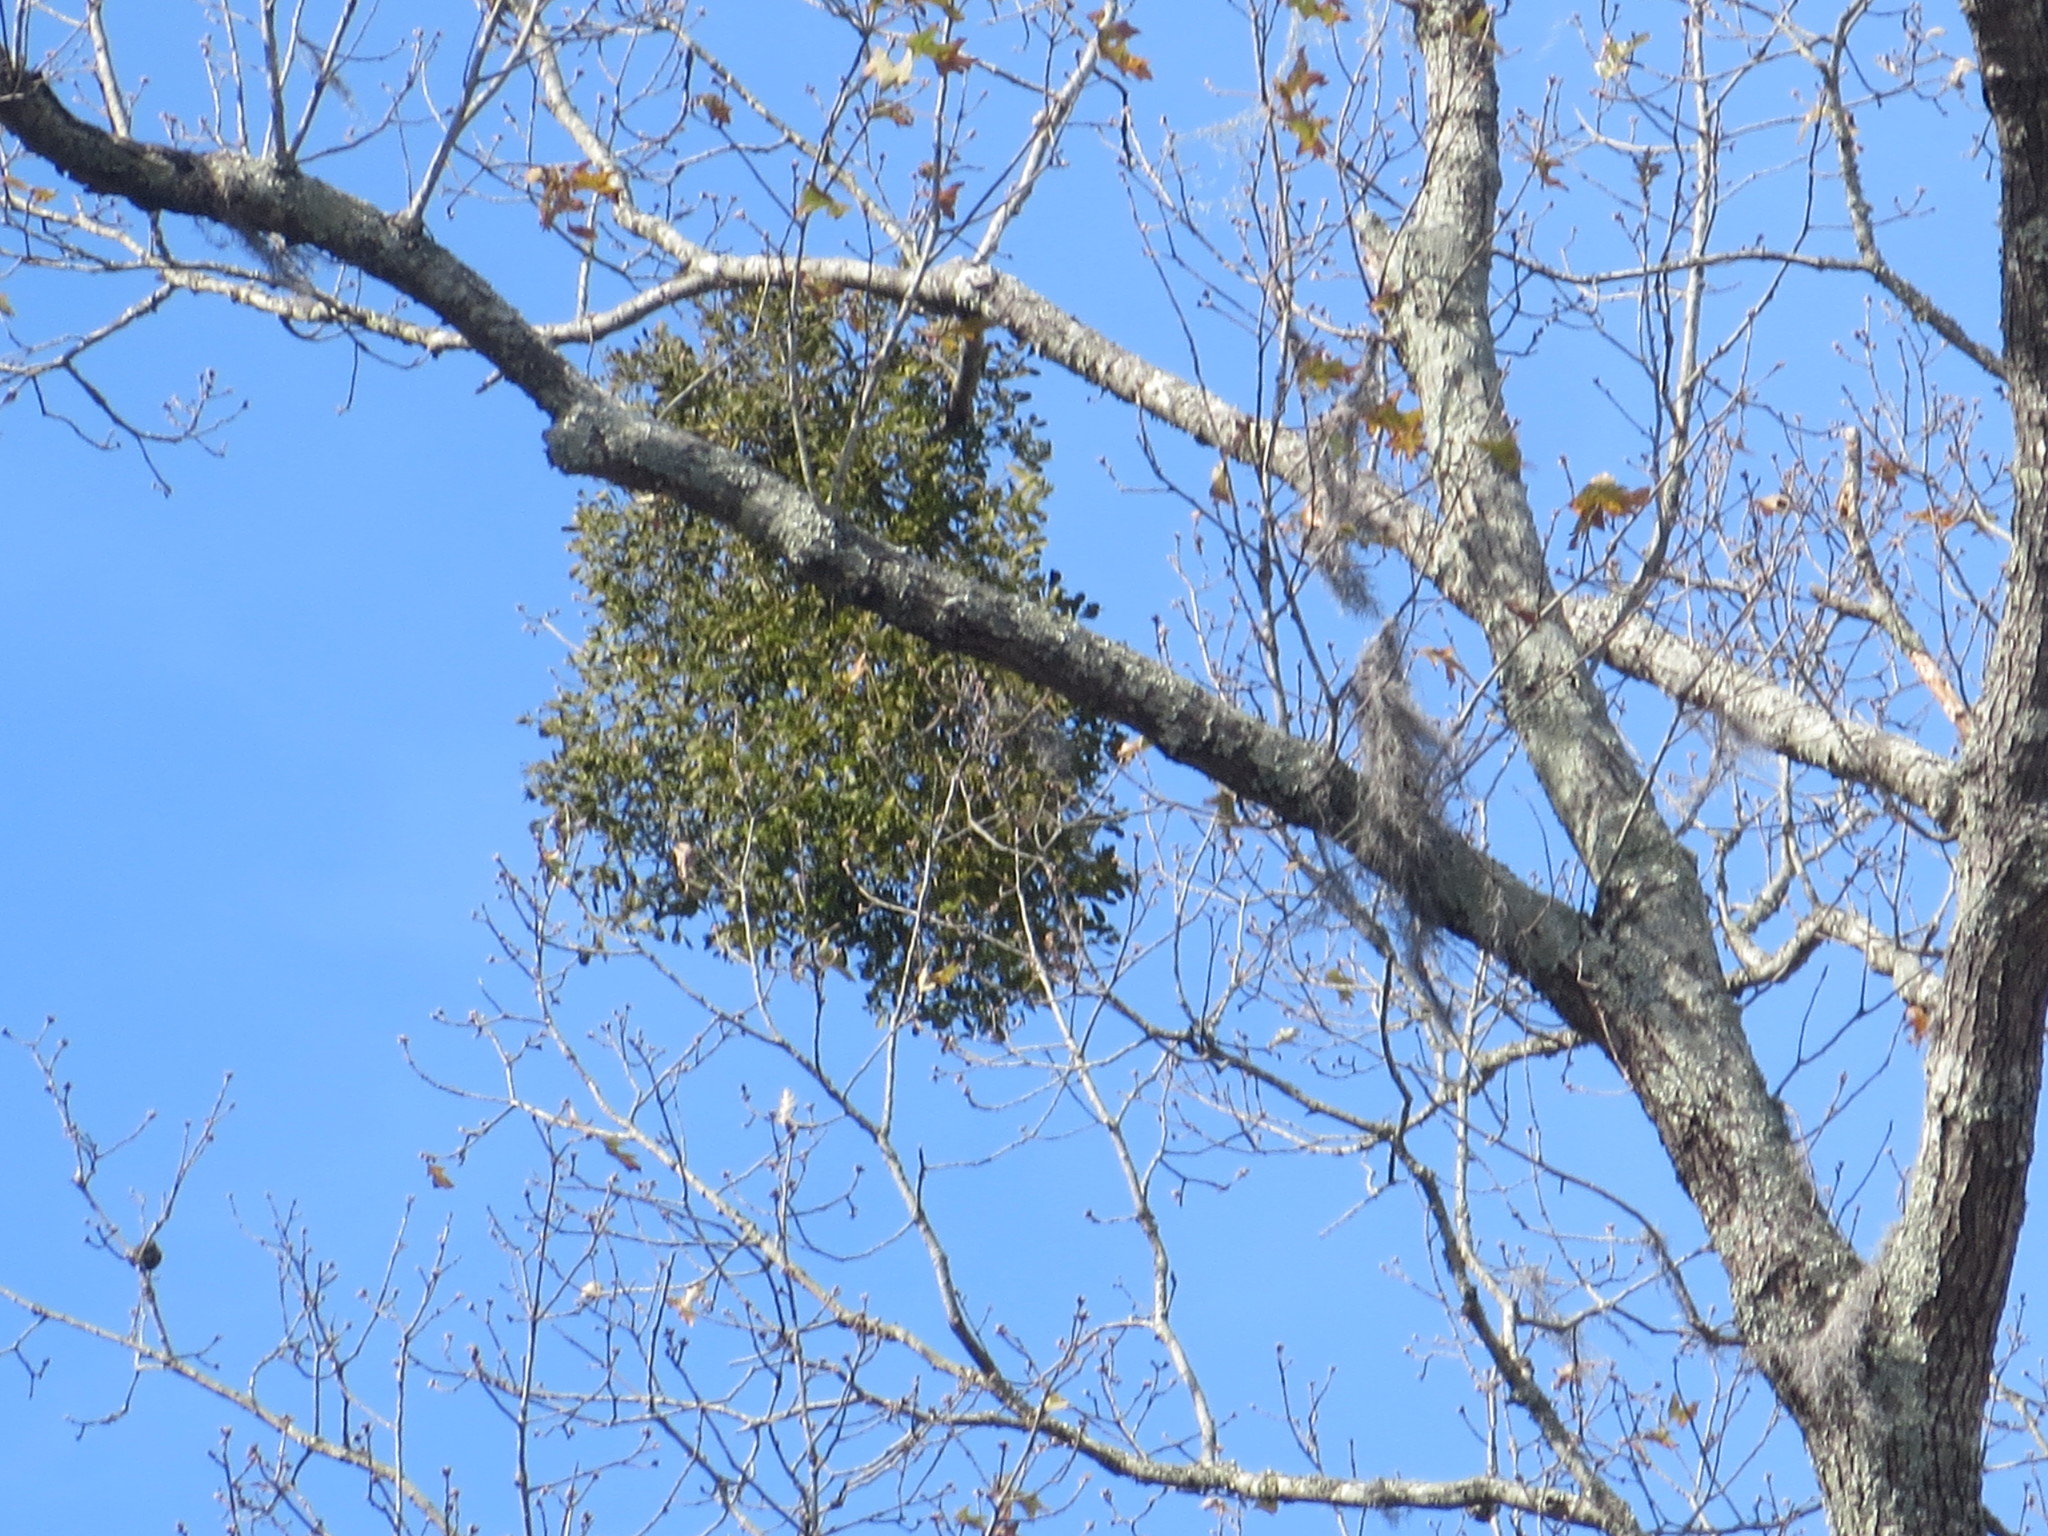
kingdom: Plantae
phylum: Tracheophyta
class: Magnoliopsida
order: Santalales
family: Viscaceae
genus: Phoradendron
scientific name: Phoradendron leucarpum
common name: Pacific mistletoe
